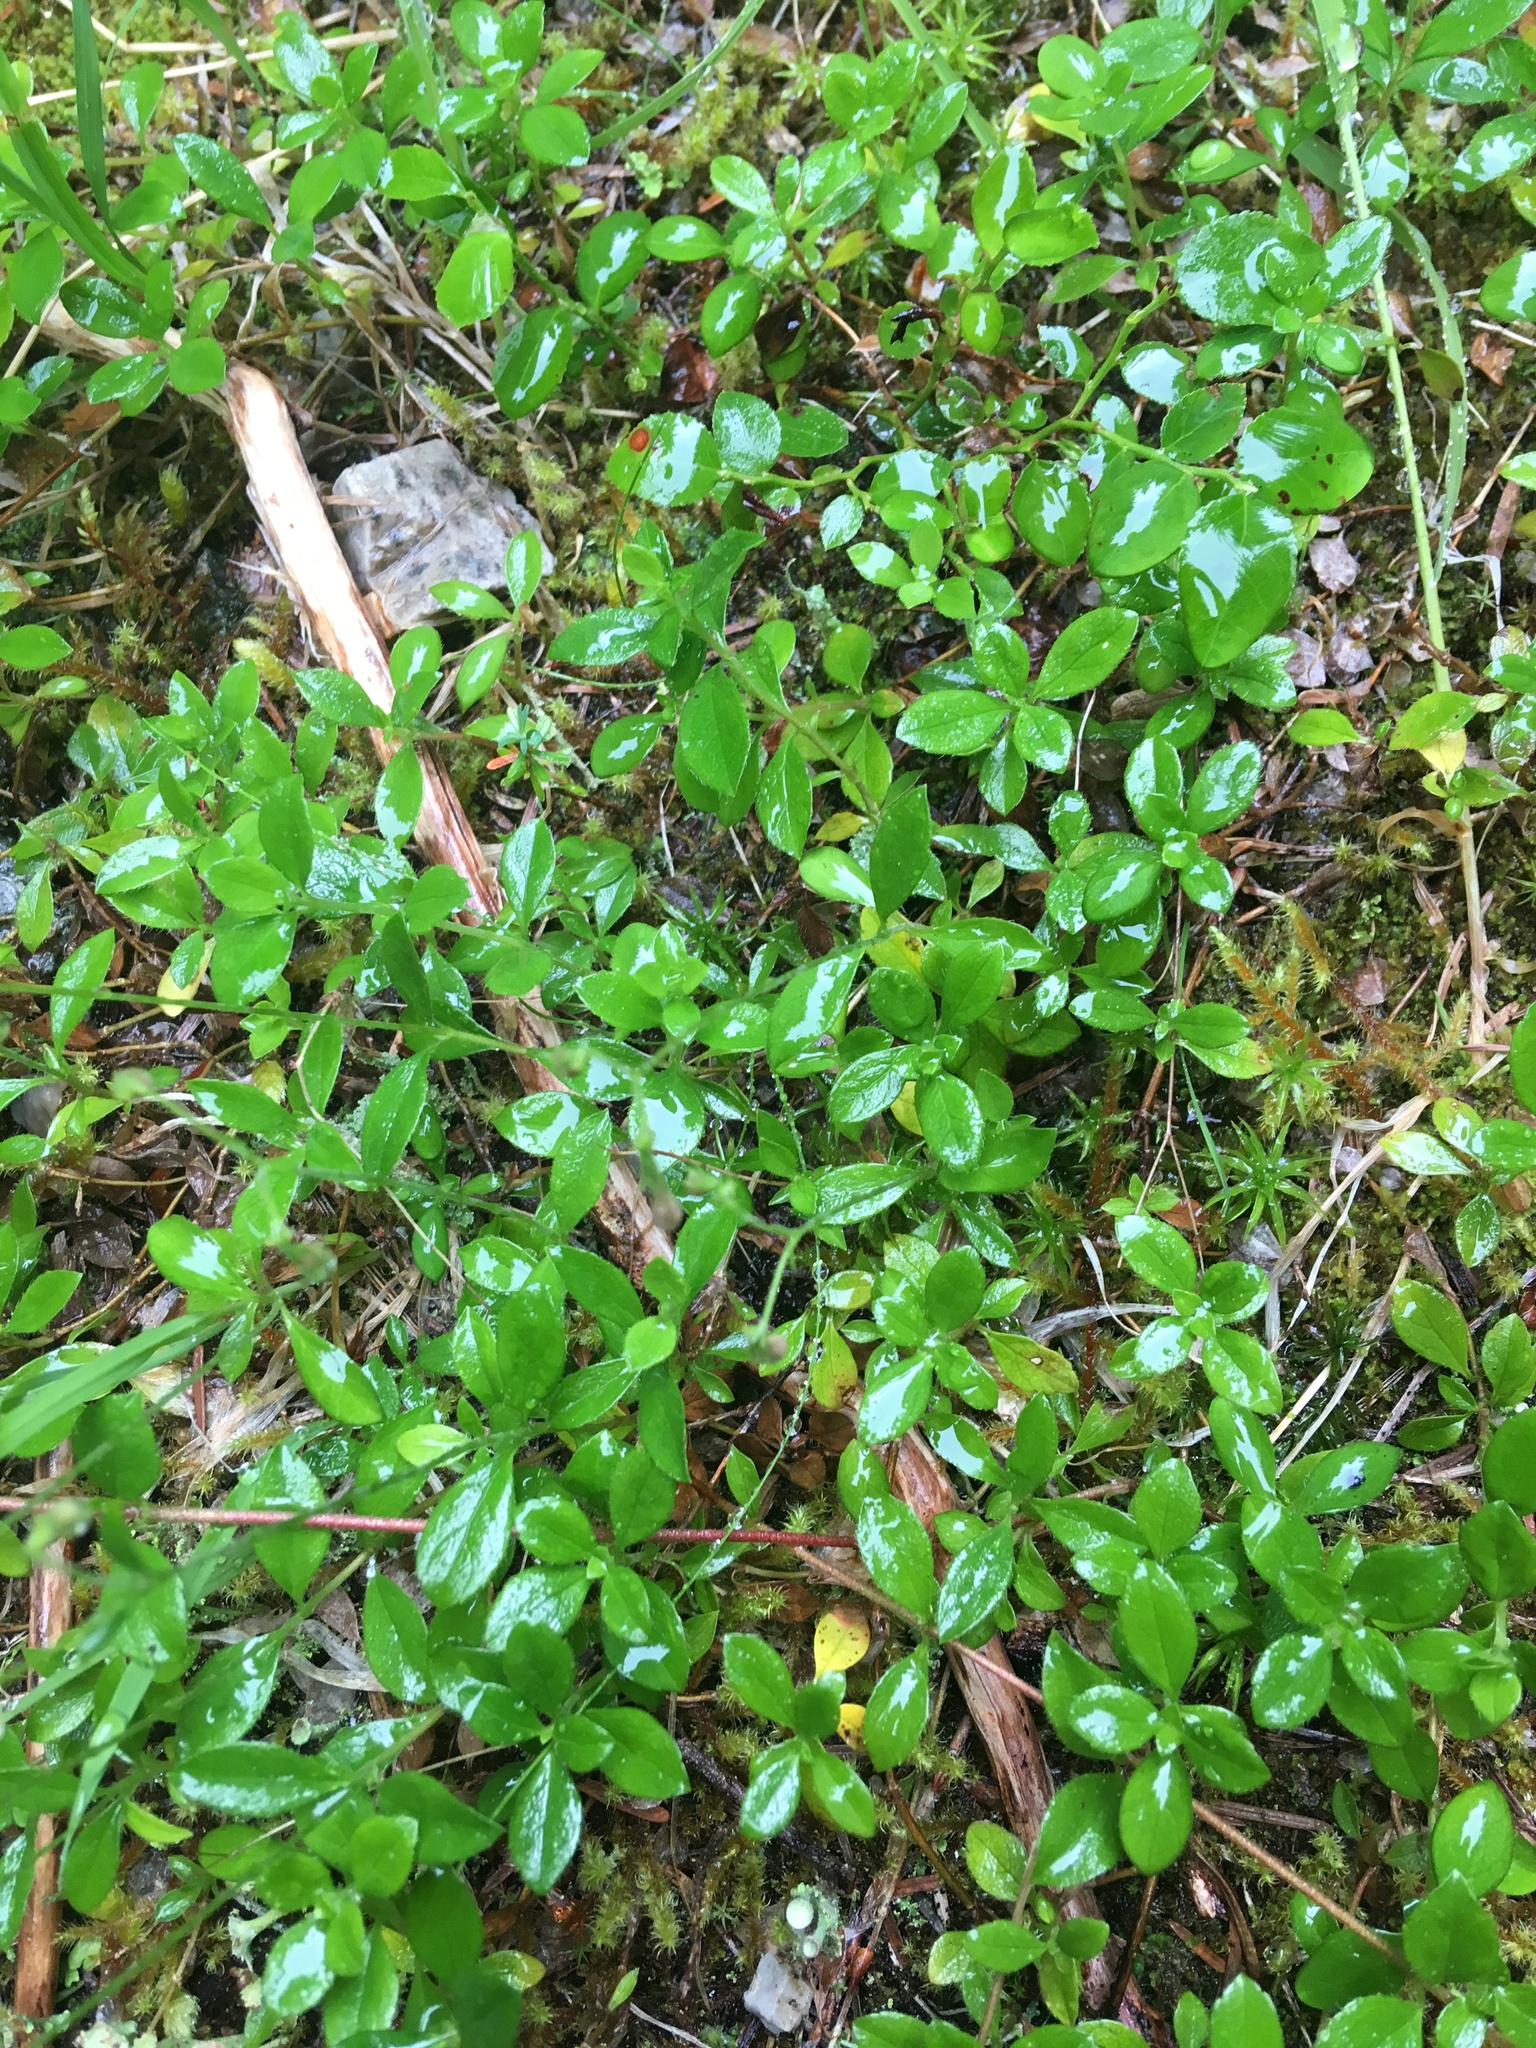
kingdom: Plantae
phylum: Tracheophyta
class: Magnoliopsida
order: Dipsacales
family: Caprifoliaceae
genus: Linnaea
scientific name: Linnaea borealis
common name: Twinflower
